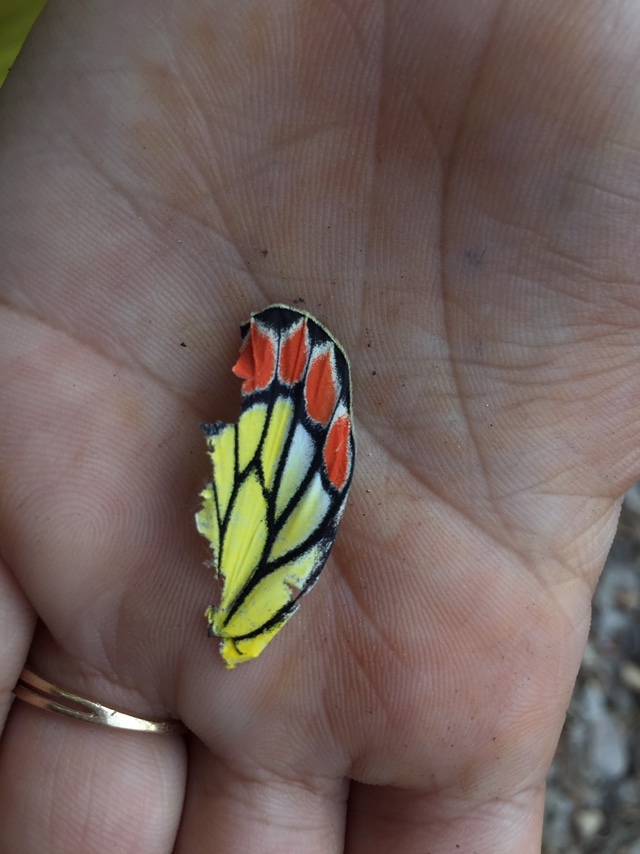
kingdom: Animalia
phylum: Arthropoda
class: Insecta
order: Lepidoptera
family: Pieridae
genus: Delias
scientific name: Delias eucharis
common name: Common jezebel
